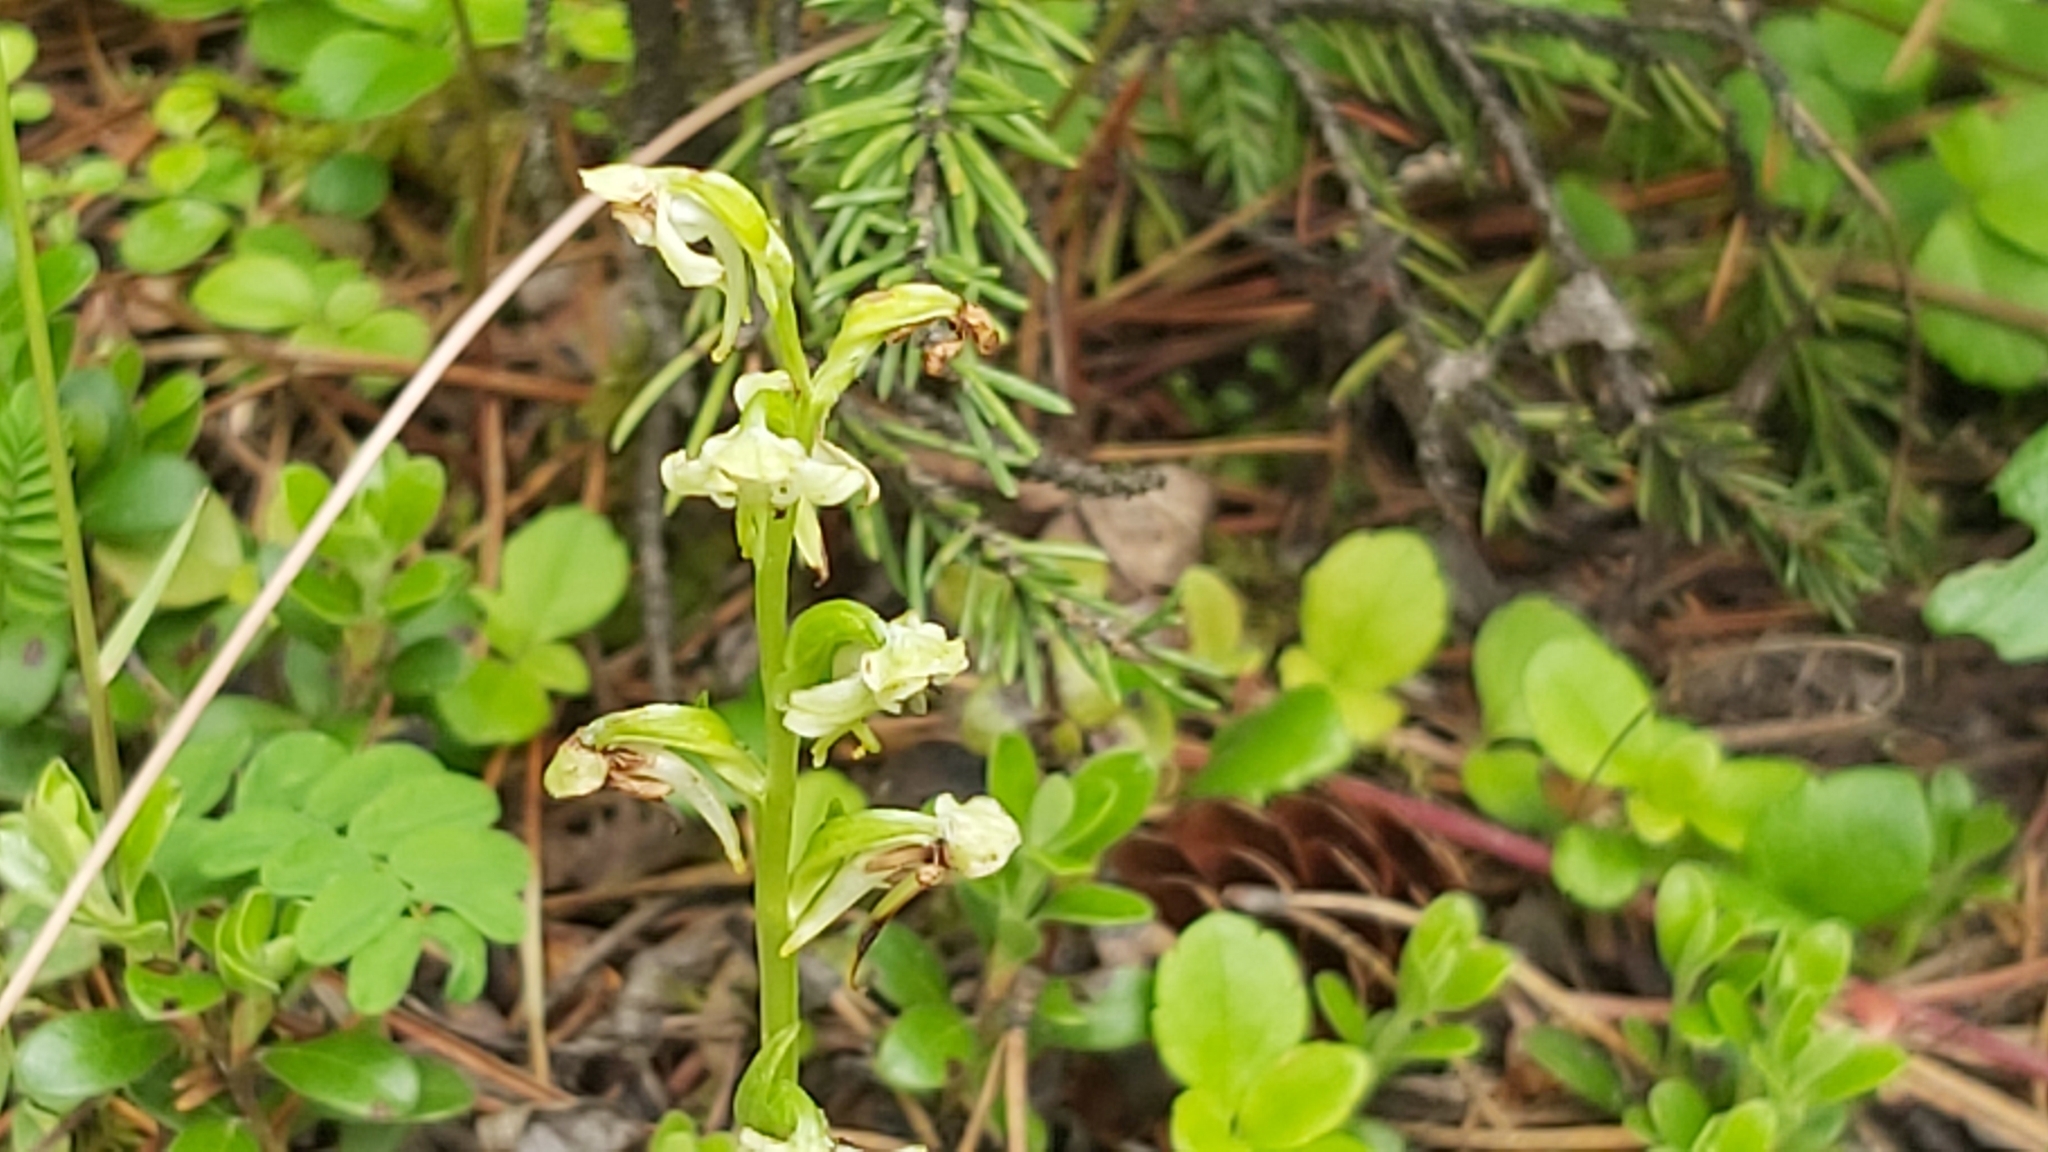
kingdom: Plantae
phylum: Tracheophyta
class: Liliopsida
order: Asparagales
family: Orchidaceae
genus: Platanthera
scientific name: Platanthera obtusata
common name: Blunt bog orchid
